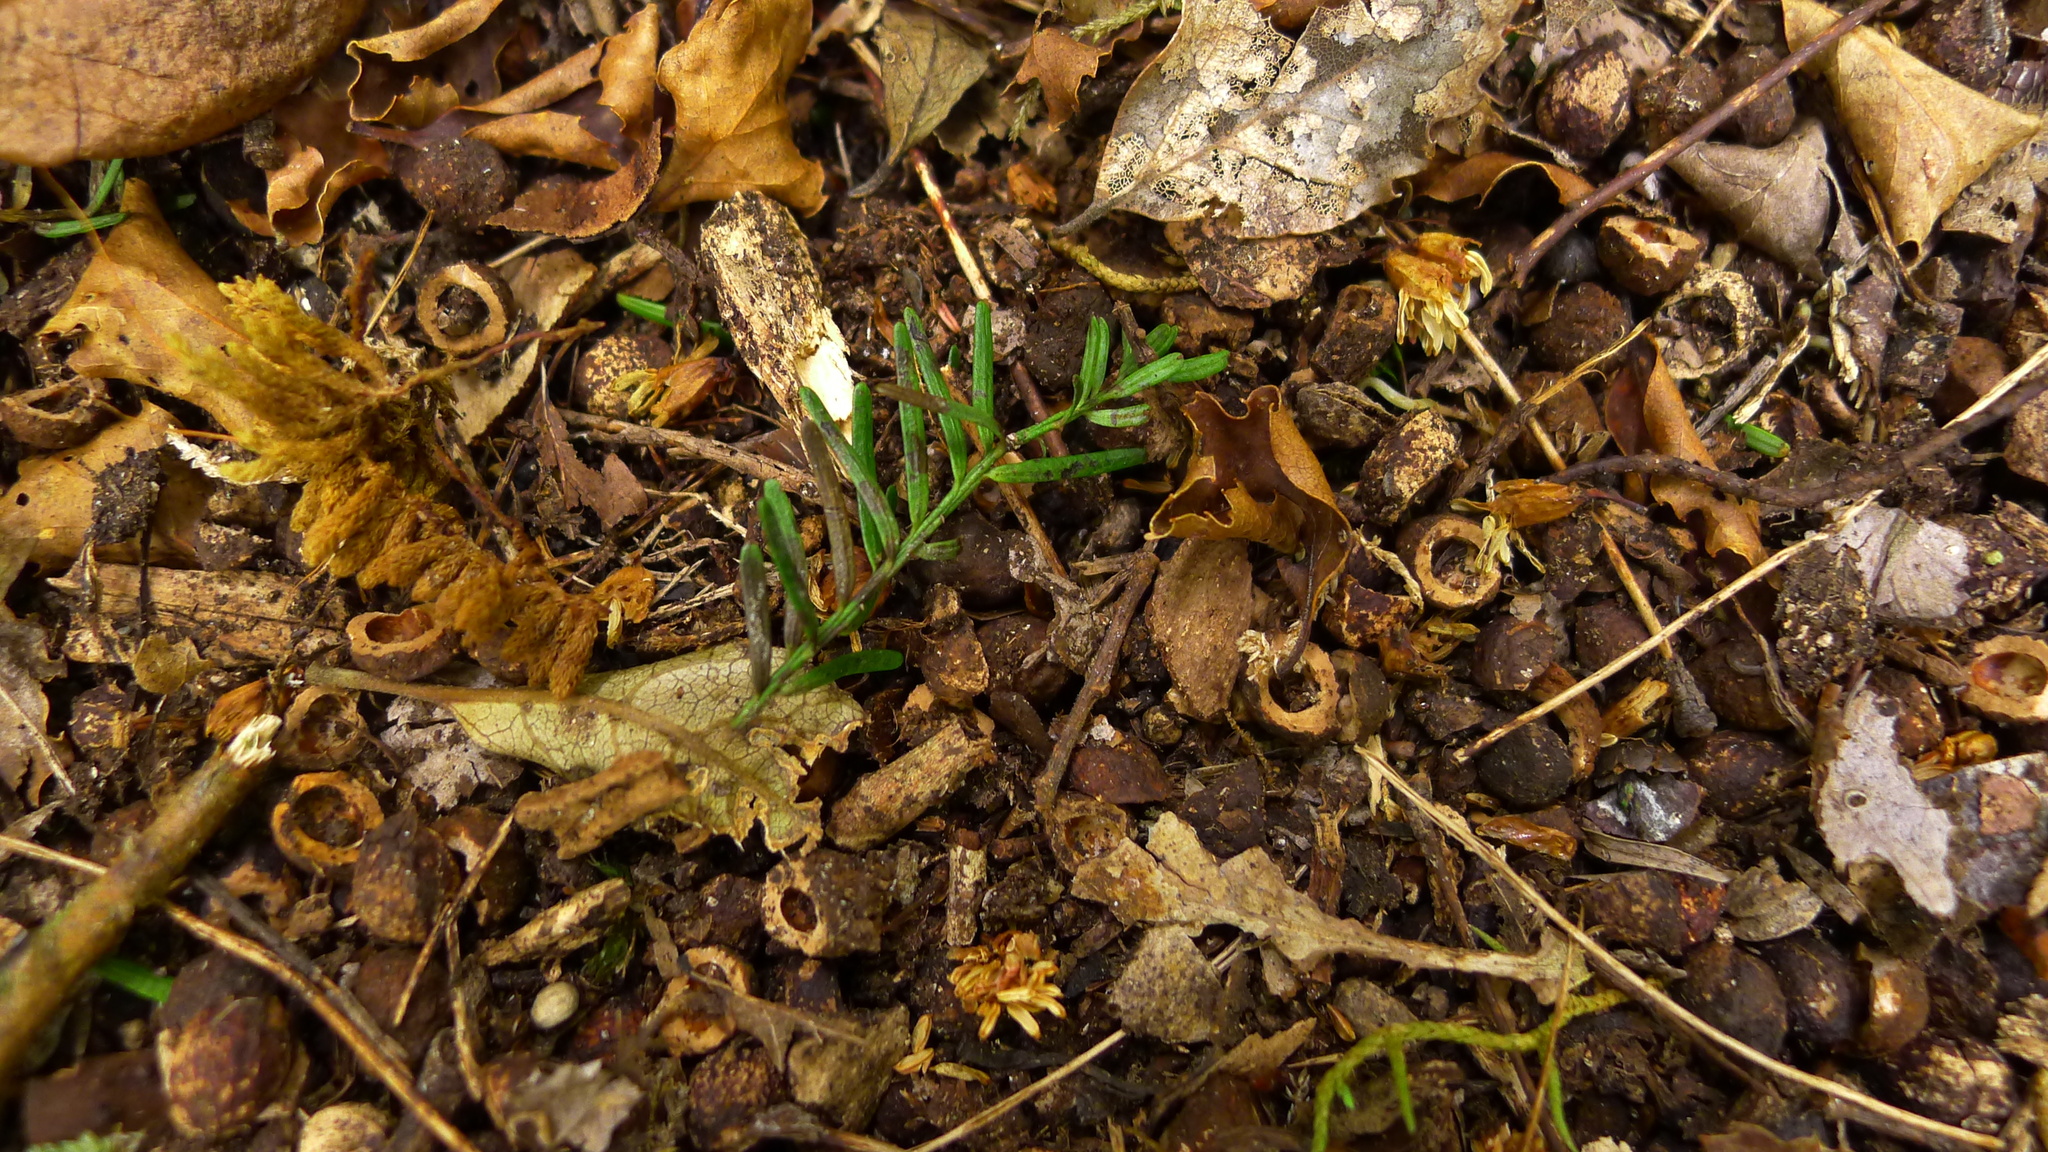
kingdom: Plantae
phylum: Tracheophyta
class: Pinopsida
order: Pinales
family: Podocarpaceae
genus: Prumnopitys
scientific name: Prumnopitys taxifolia
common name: Matai
